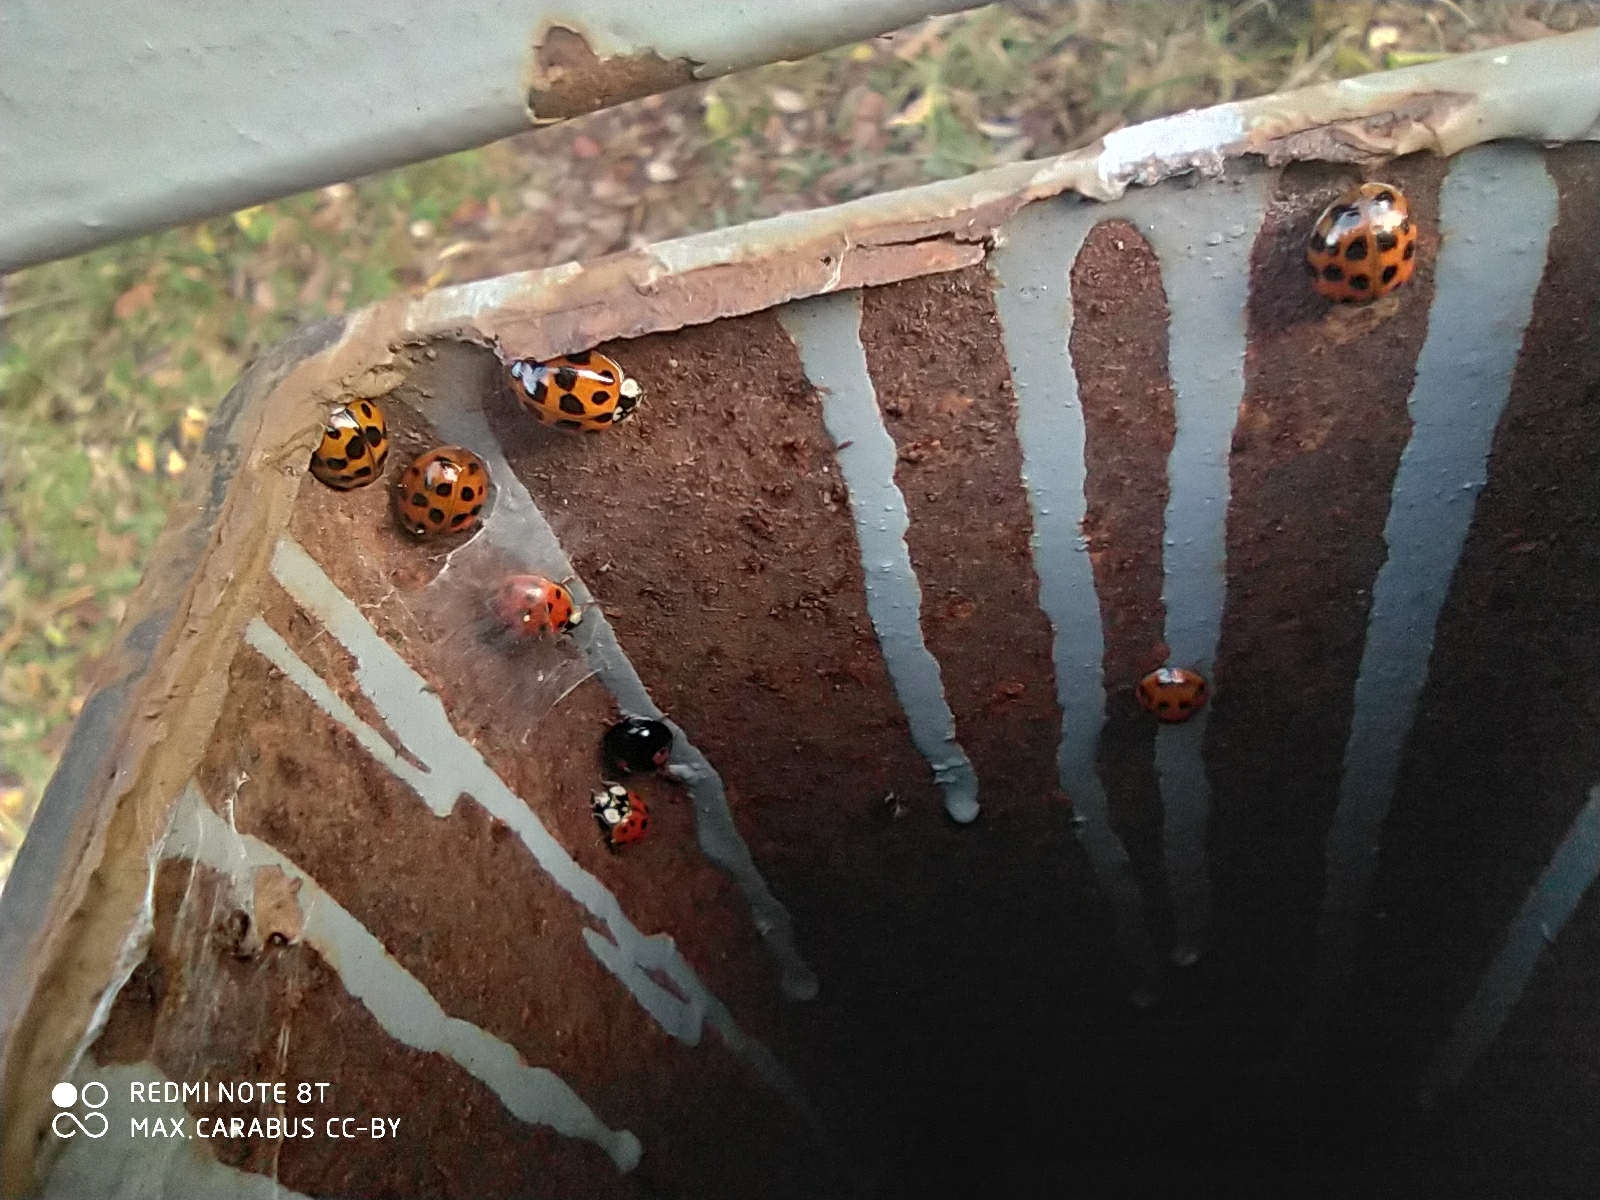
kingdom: Animalia
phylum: Arthropoda
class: Insecta
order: Coleoptera
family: Coccinellidae
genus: Harmonia
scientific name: Harmonia axyridis
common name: Harlequin ladybird
